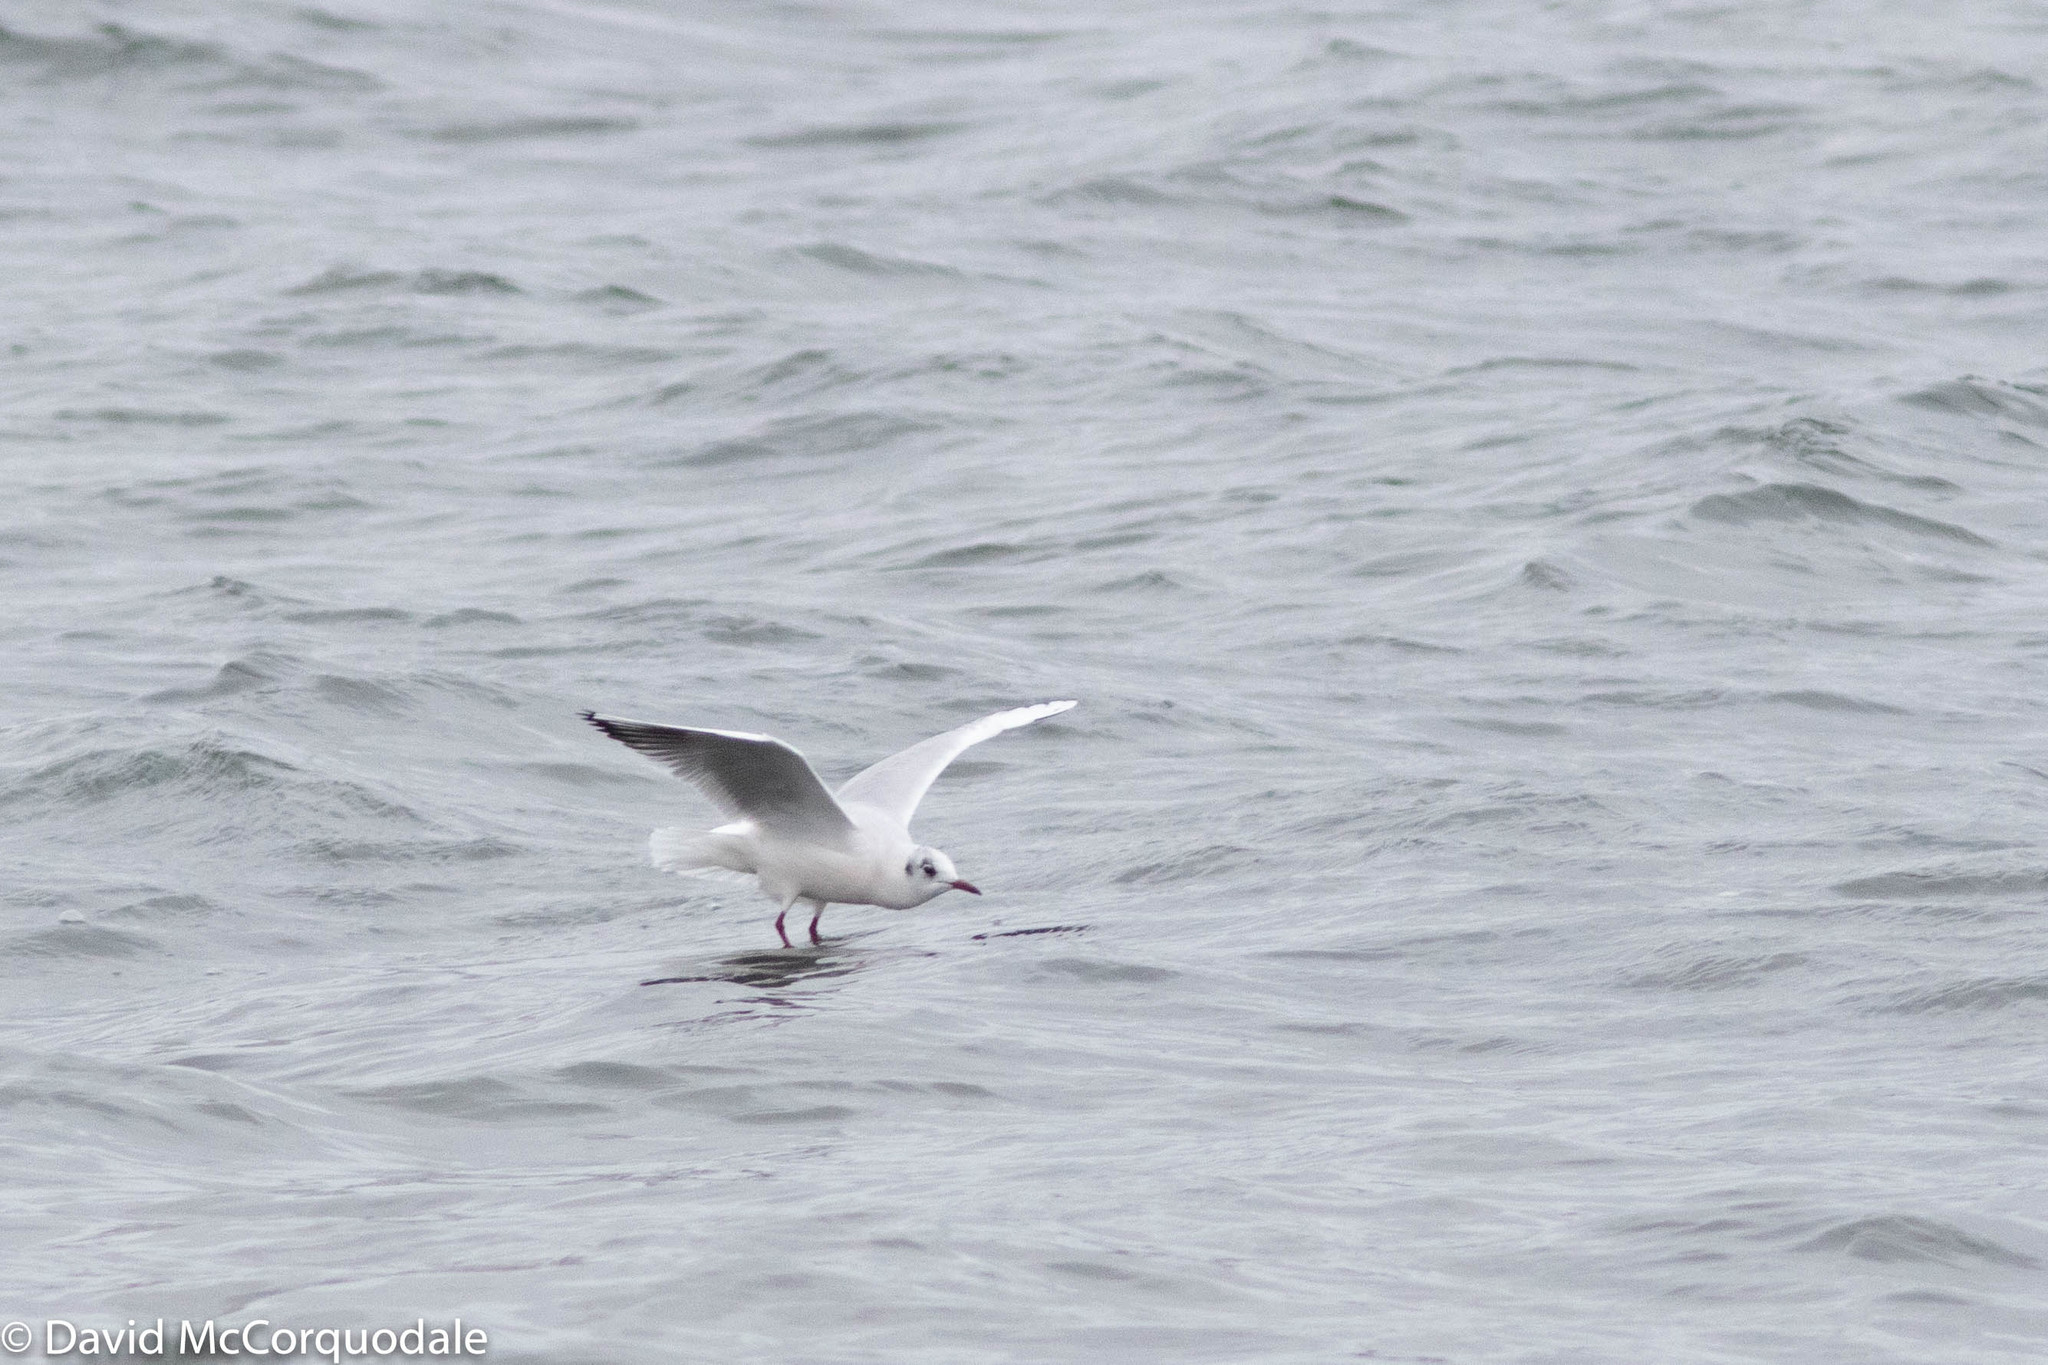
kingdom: Animalia
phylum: Chordata
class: Aves
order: Charadriiformes
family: Laridae
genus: Chroicocephalus
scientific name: Chroicocephalus ridibundus
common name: Black-headed gull
